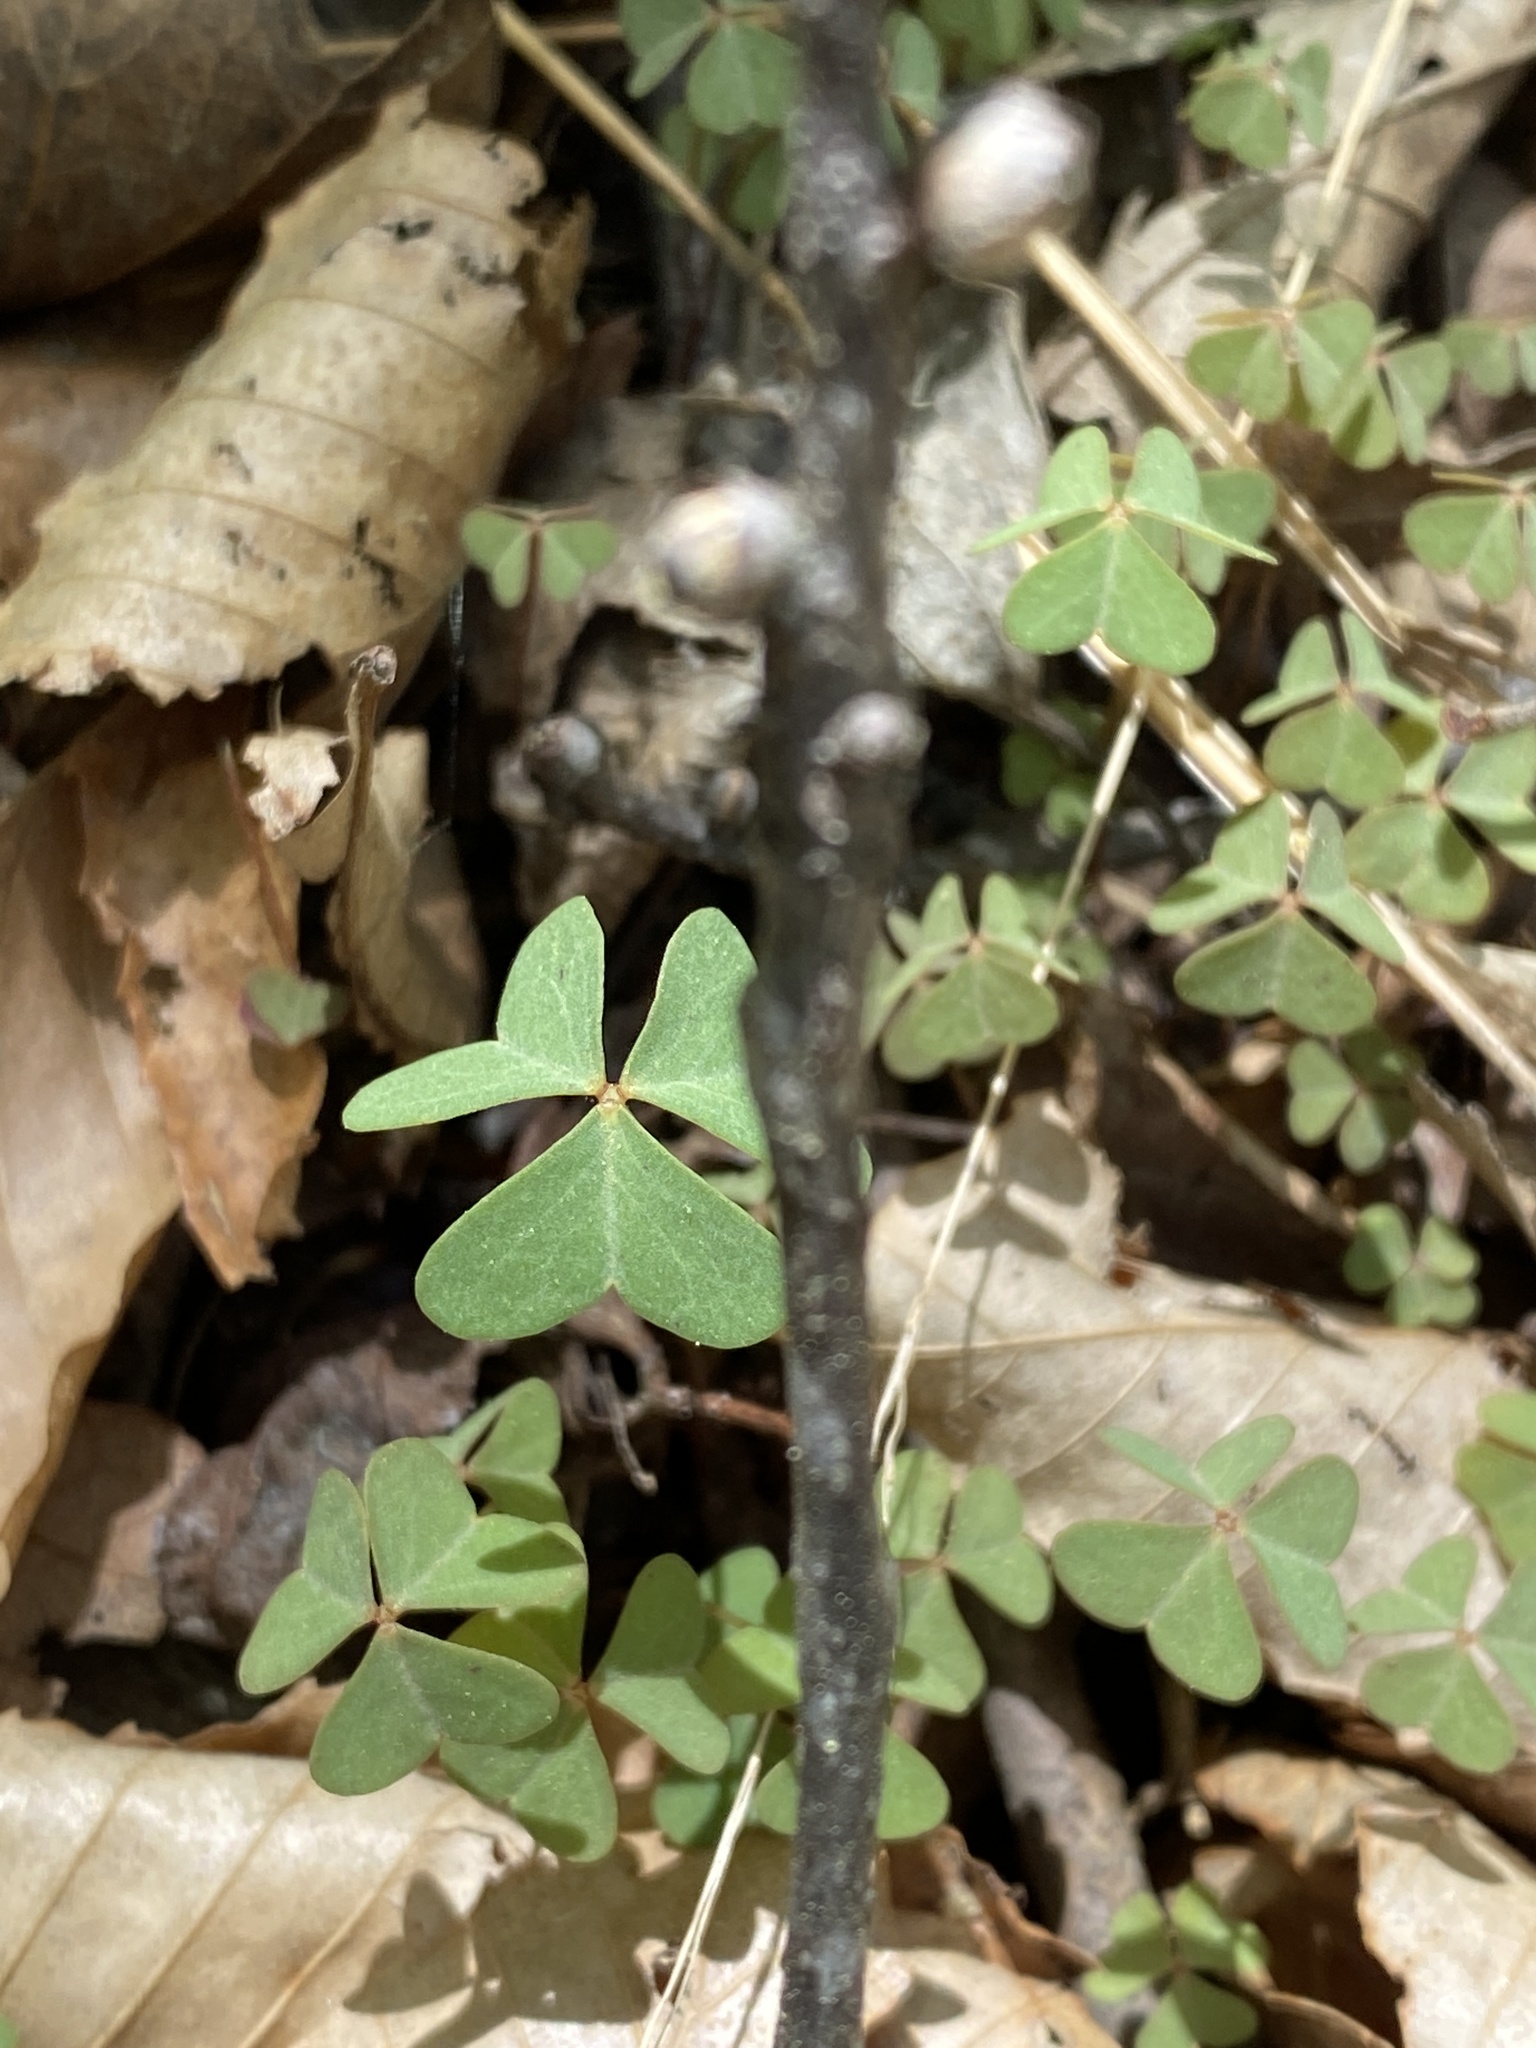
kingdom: Plantae
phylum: Tracheophyta
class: Magnoliopsida
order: Oxalidales
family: Oxalidaceae
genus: Oxalis
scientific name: Oxalis violacea
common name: Violet wood-sorrel
